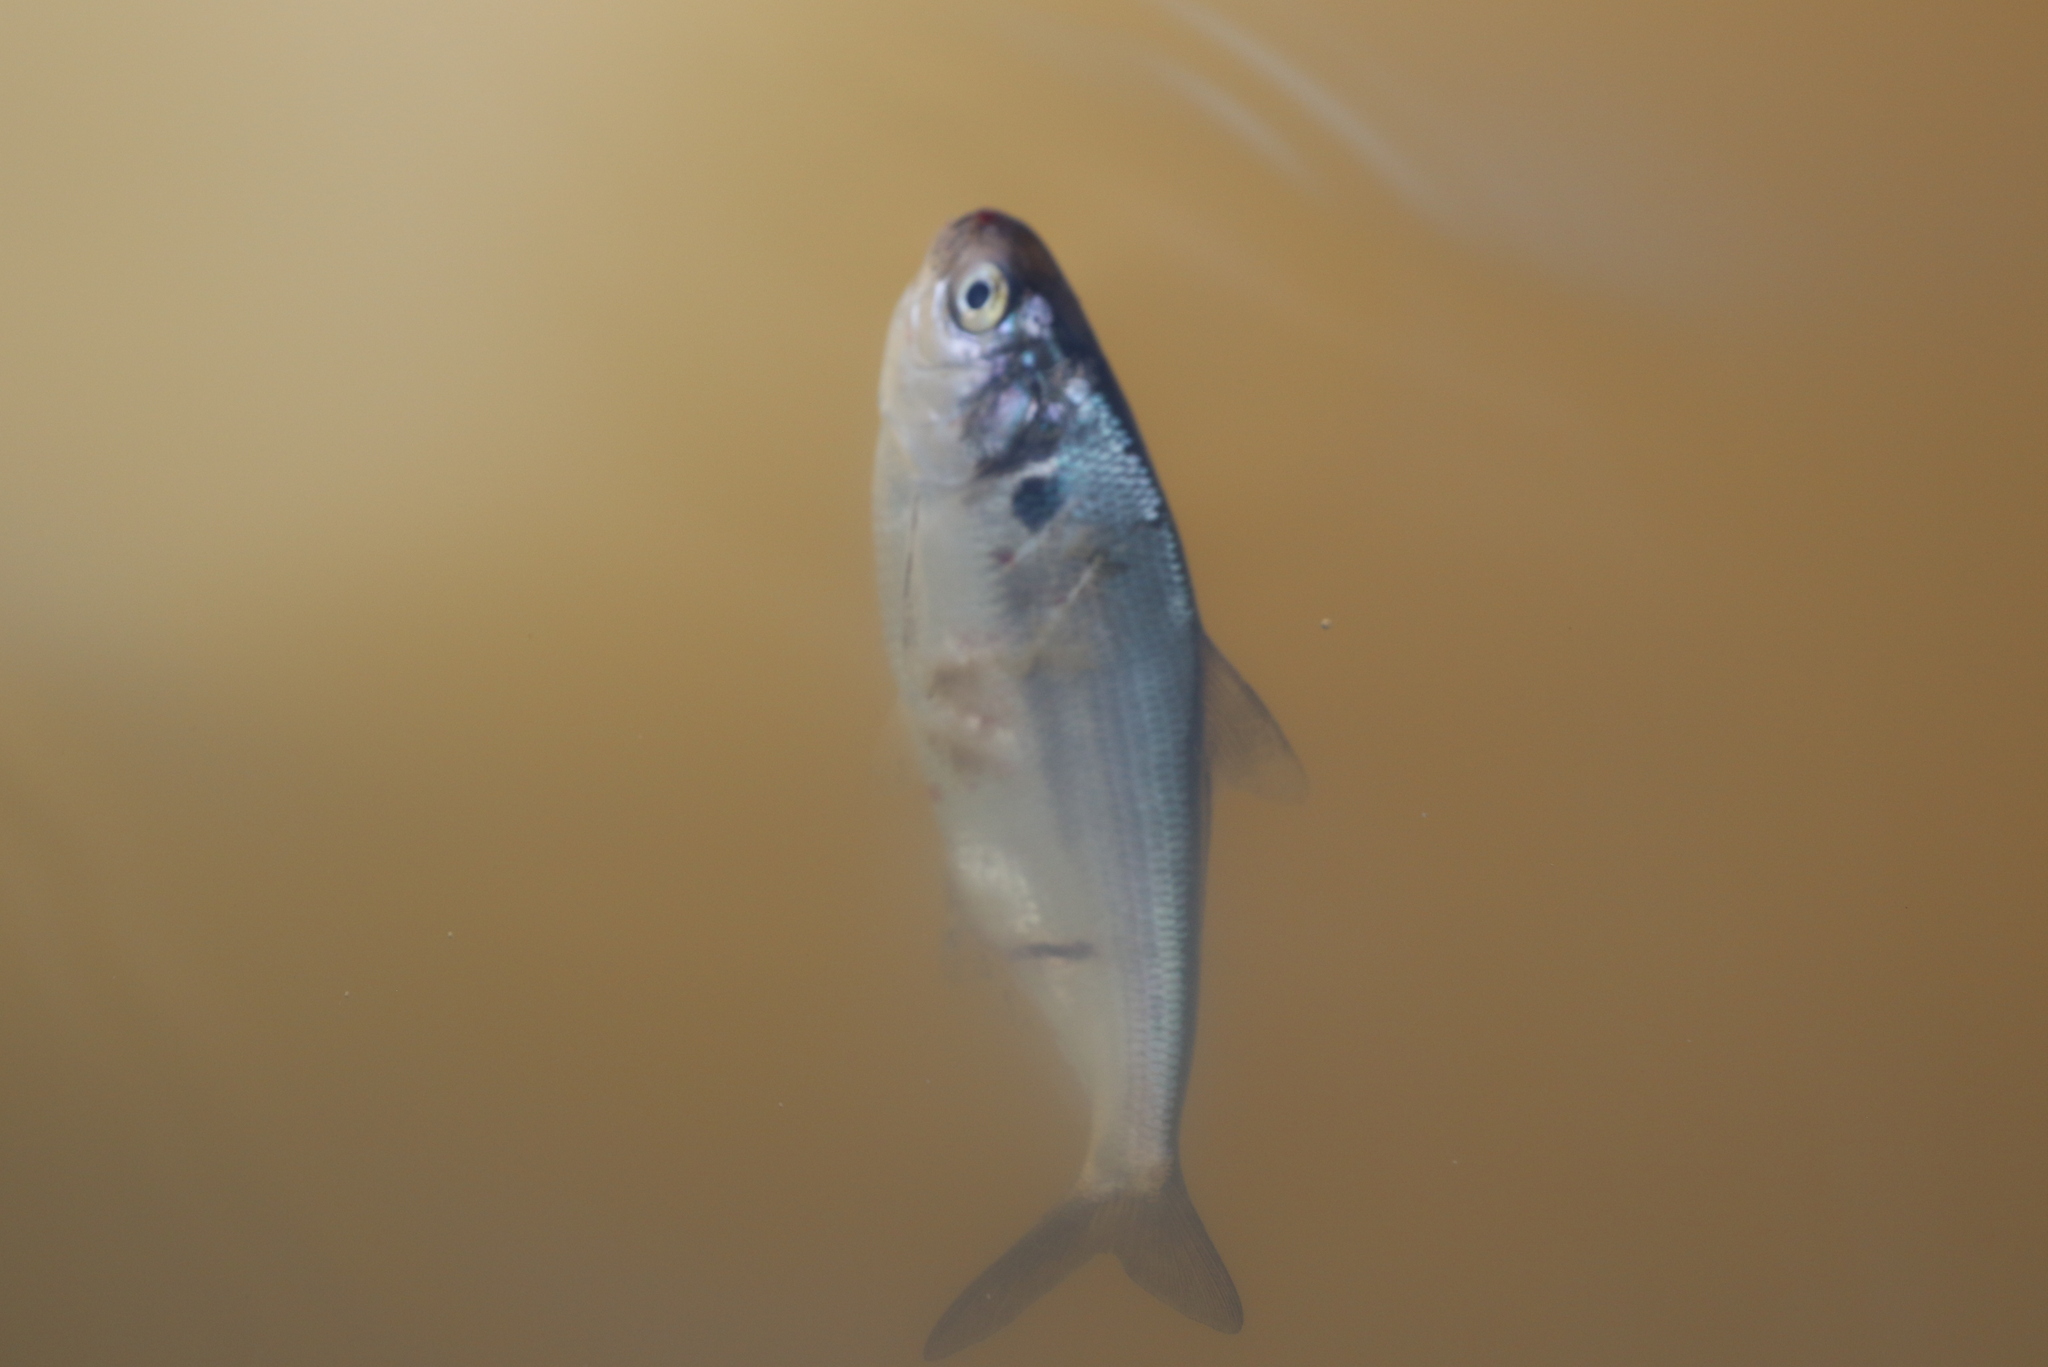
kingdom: Animalia
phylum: Chordata
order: Clupeiformes
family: Clupeidae
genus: Dorosoma
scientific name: Dorosoma cepedianum
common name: Gizzard shad
